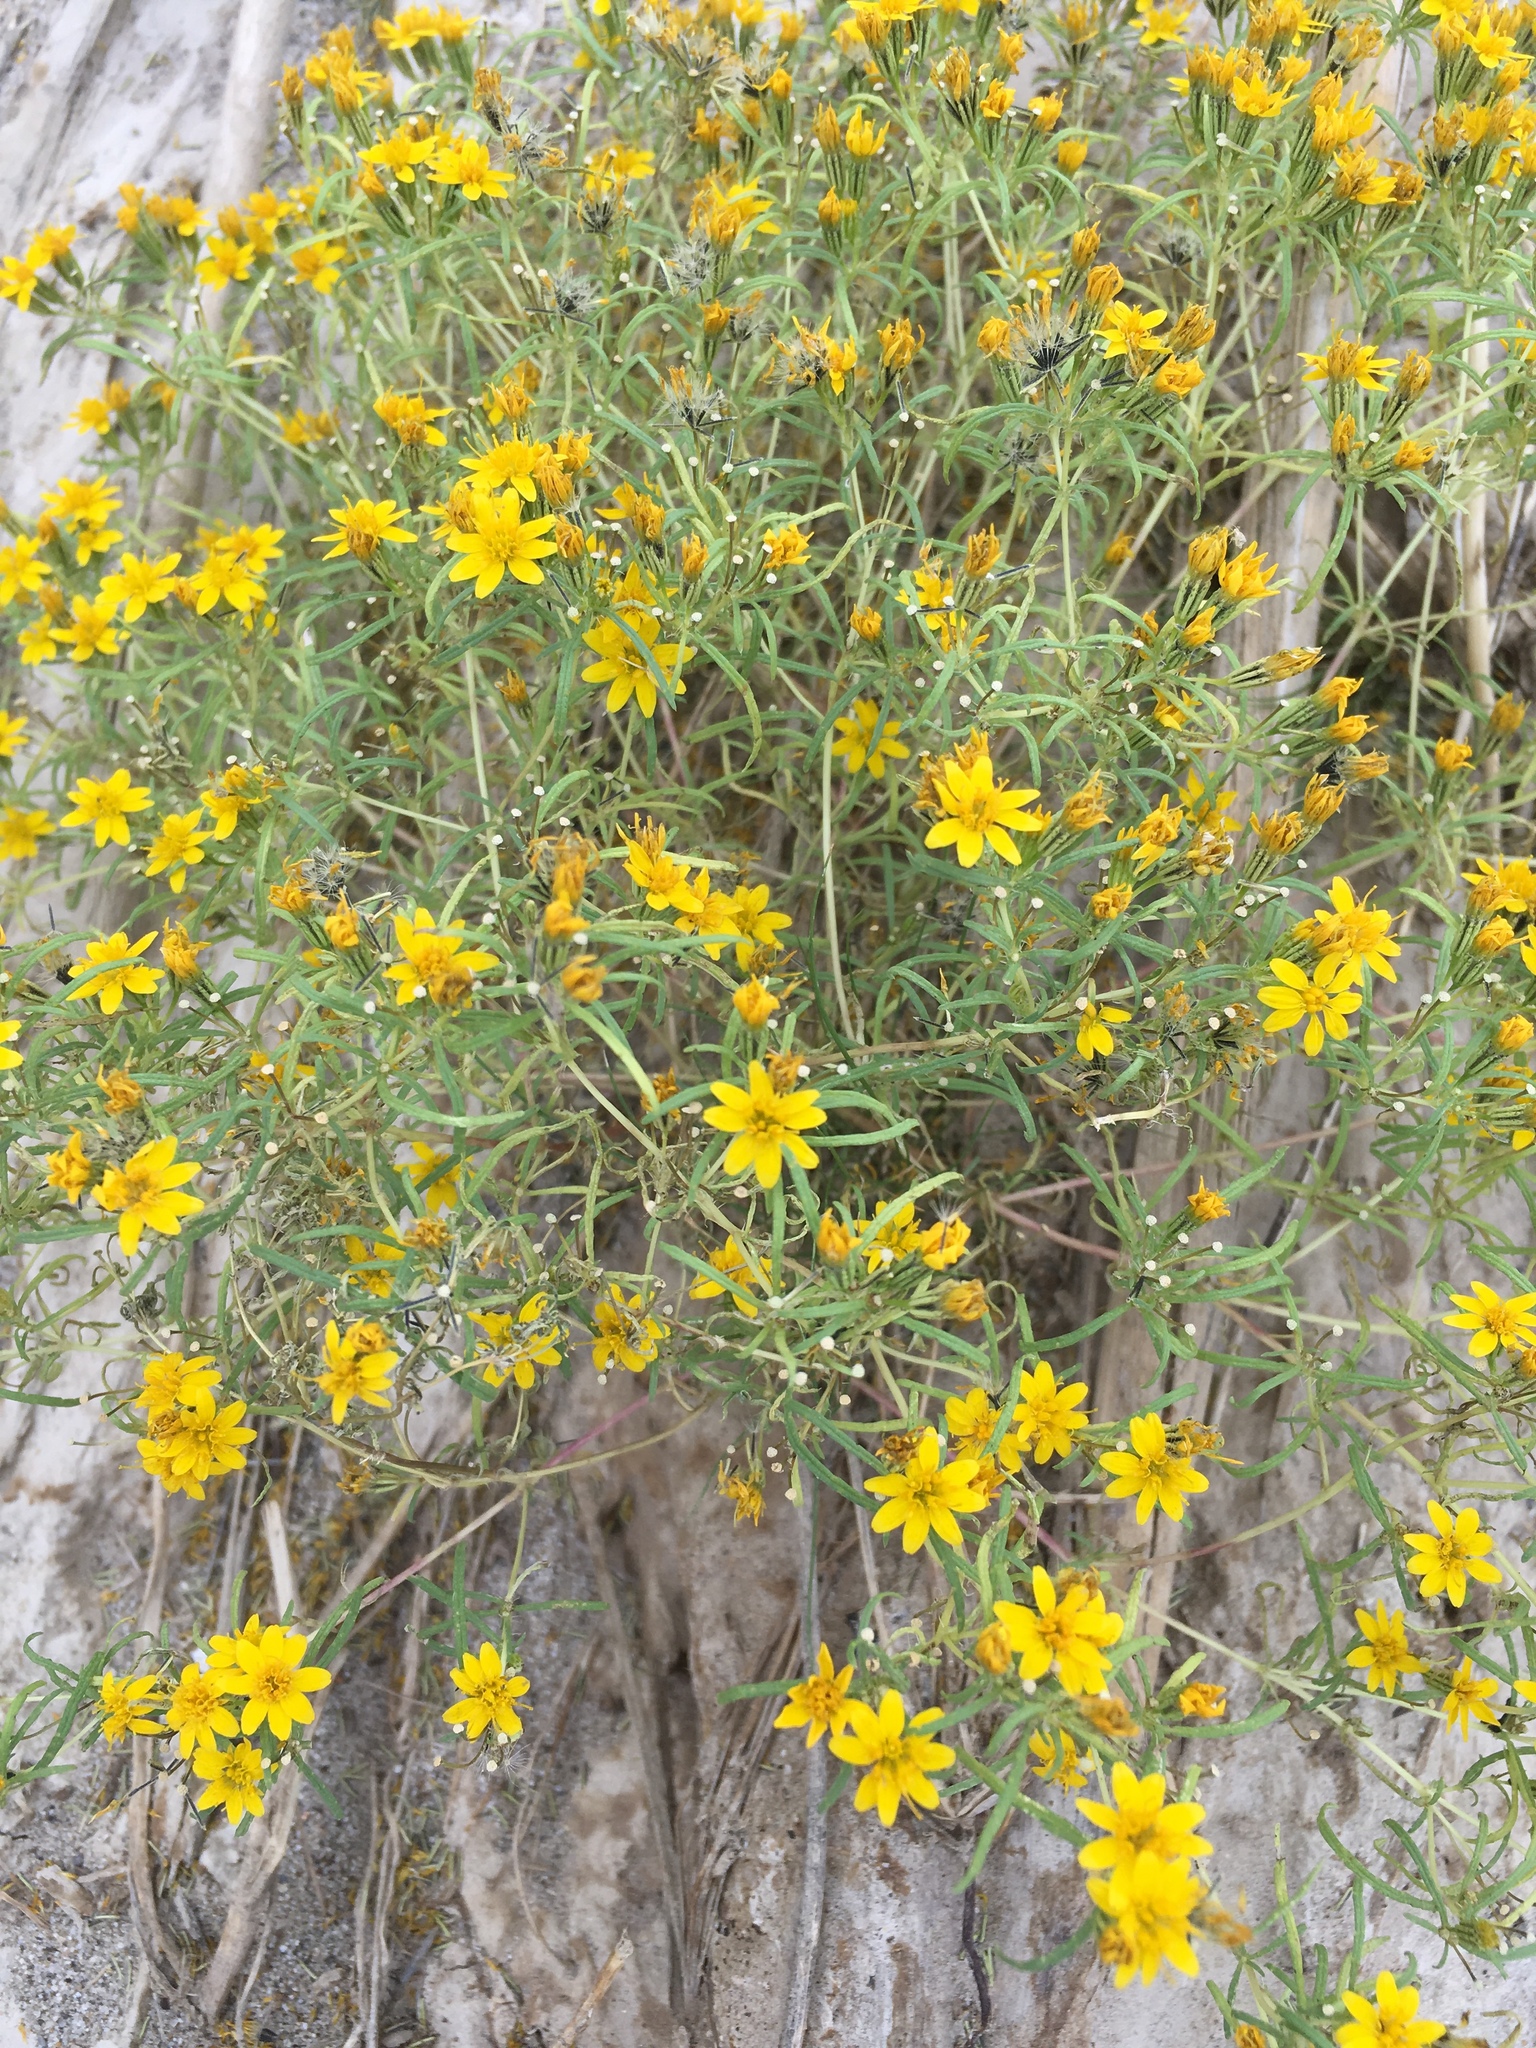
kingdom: Plantae
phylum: Tracheophyta
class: Magnoliopsida
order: Asterales
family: Asteraceae
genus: Pectis
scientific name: Pectis papposa
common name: Many-bristle chinchweed
